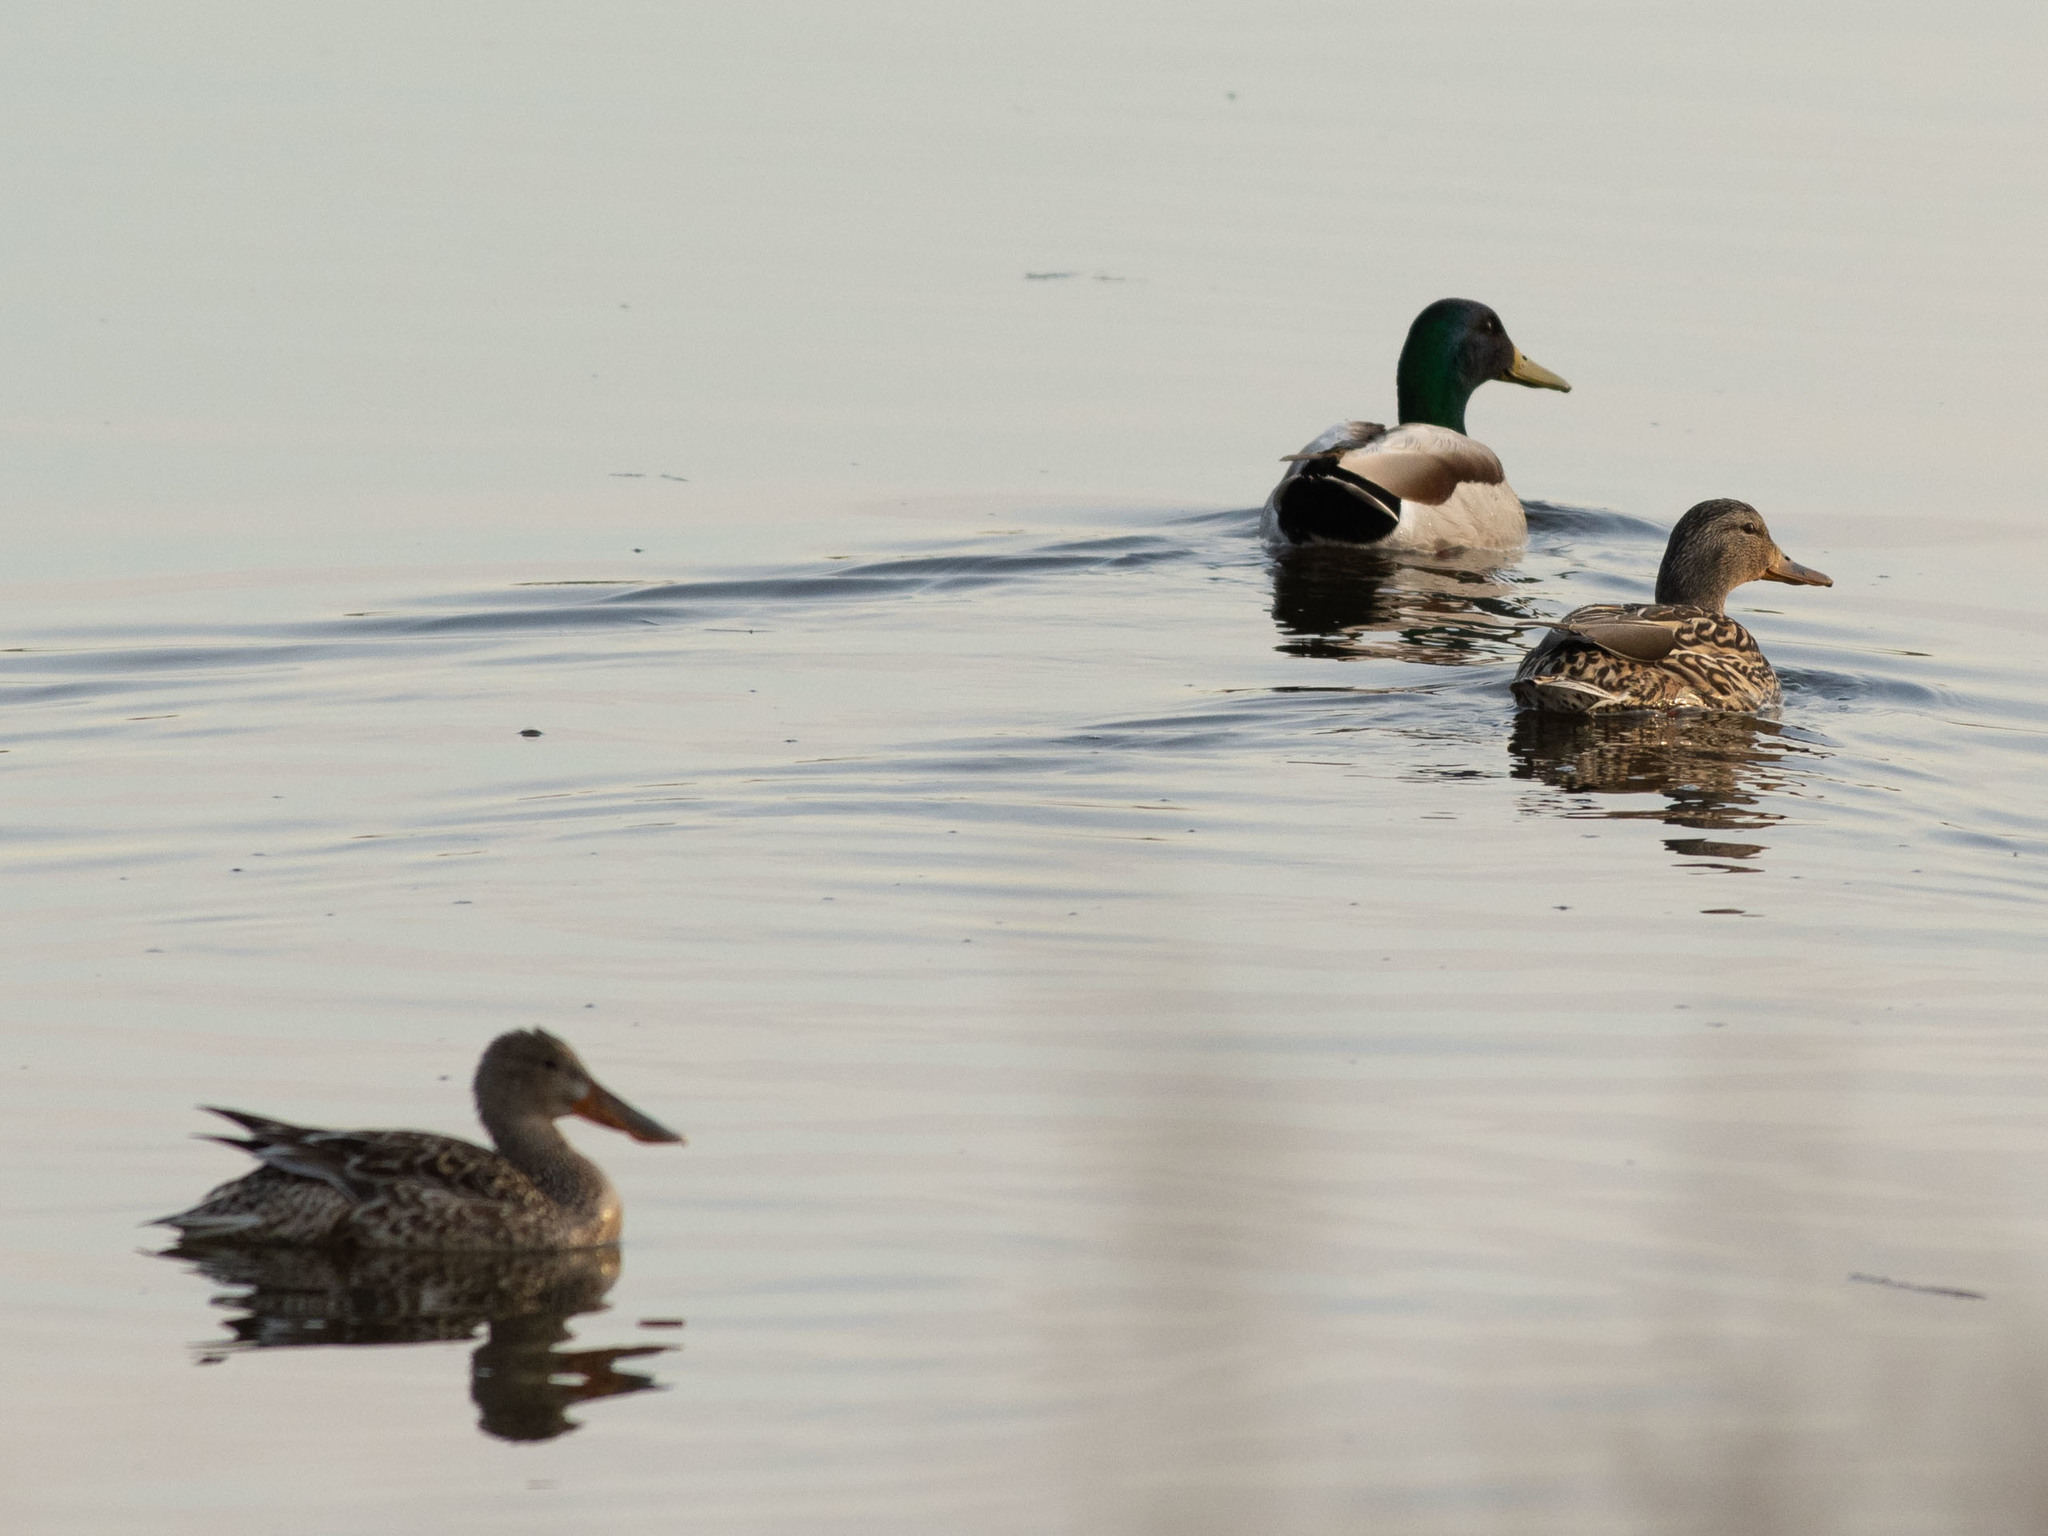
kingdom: Animalia
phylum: Chordata
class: Aves
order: Anseriformes
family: Anatidae
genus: Anas
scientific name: Anas platyrhynchos
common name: Mallard
